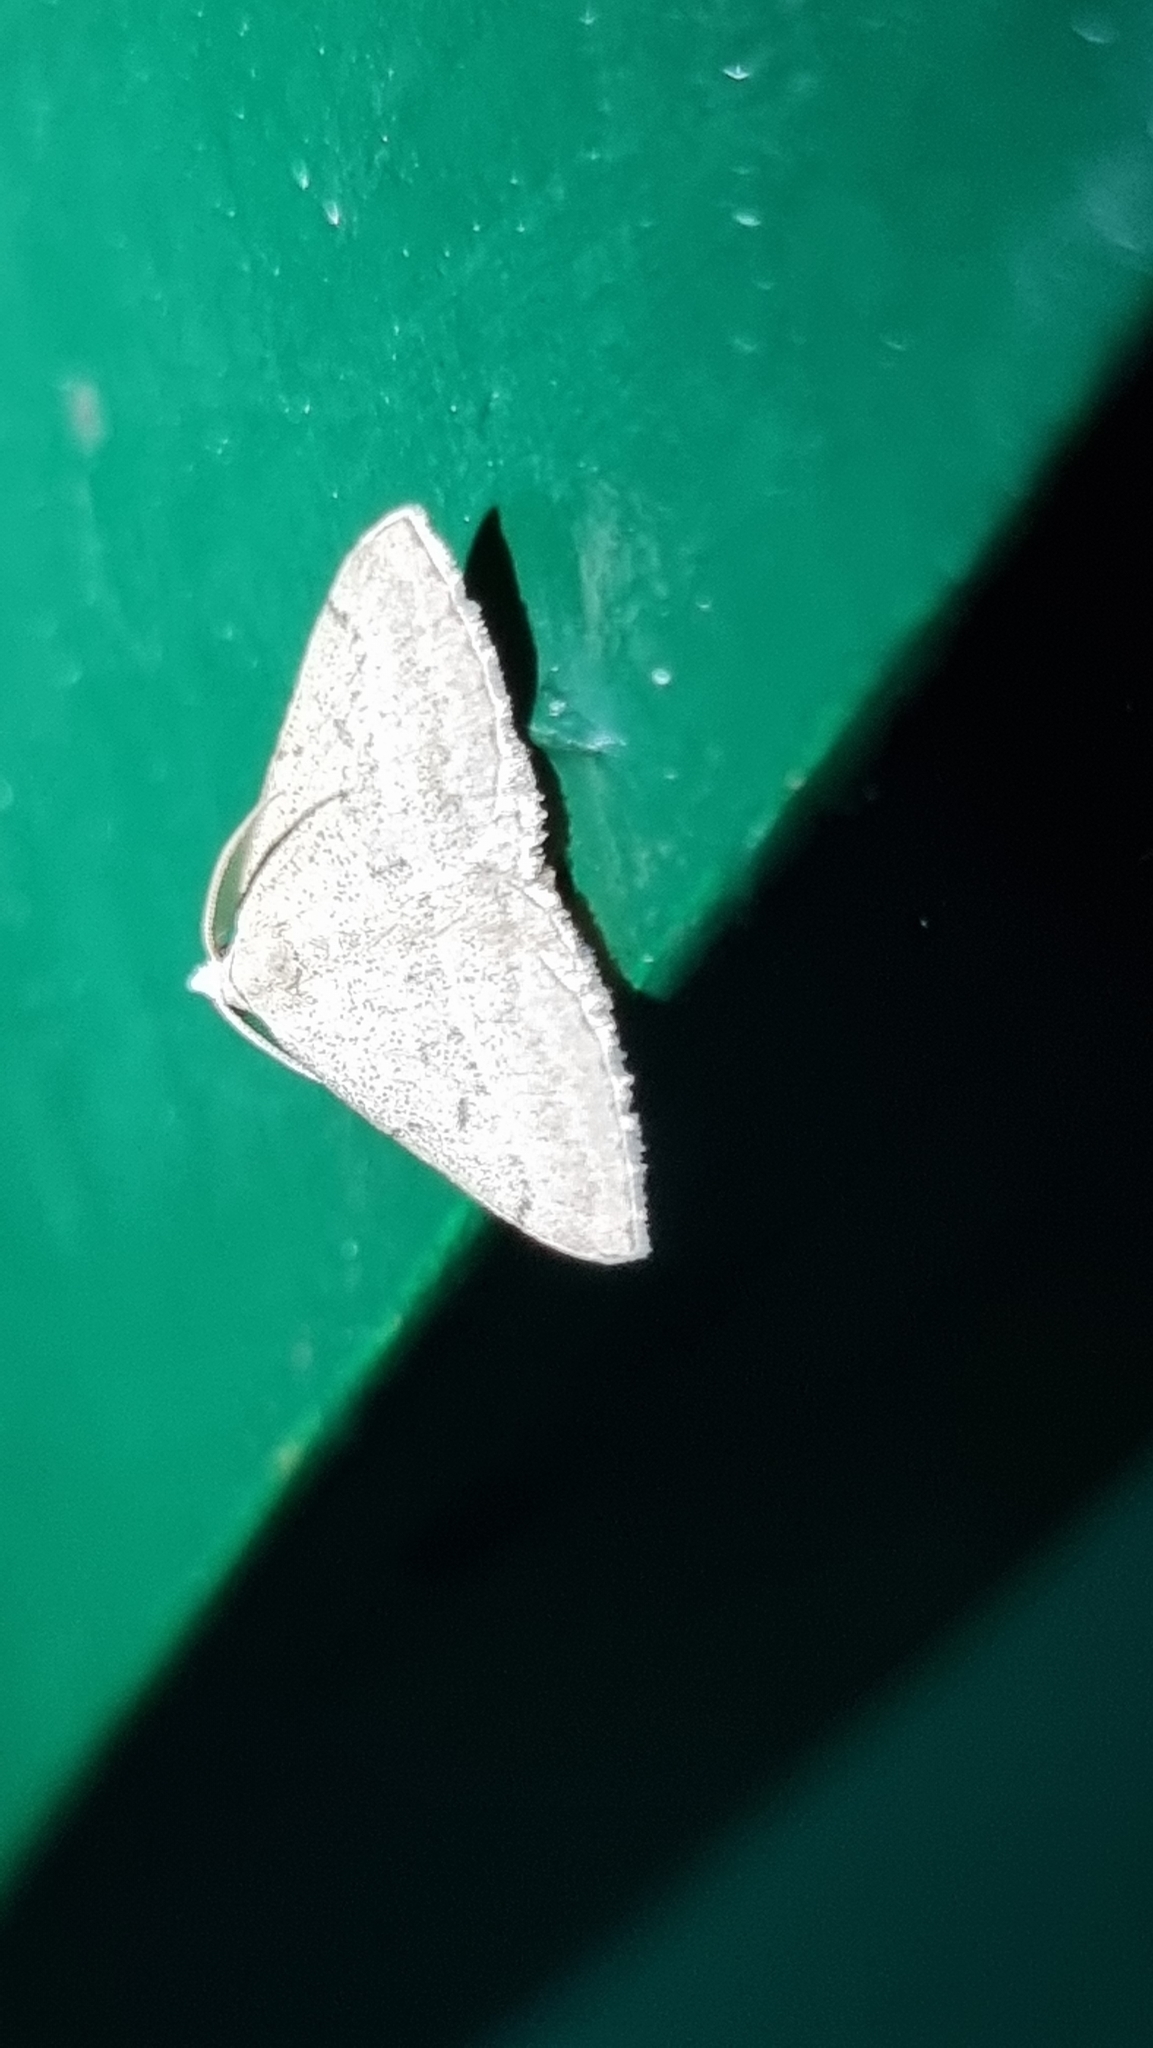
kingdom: Animalia
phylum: Arthropoda
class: Insecta
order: Lepidoptera
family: Geometridae
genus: Dichromodes
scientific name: Dichromodes limosa
